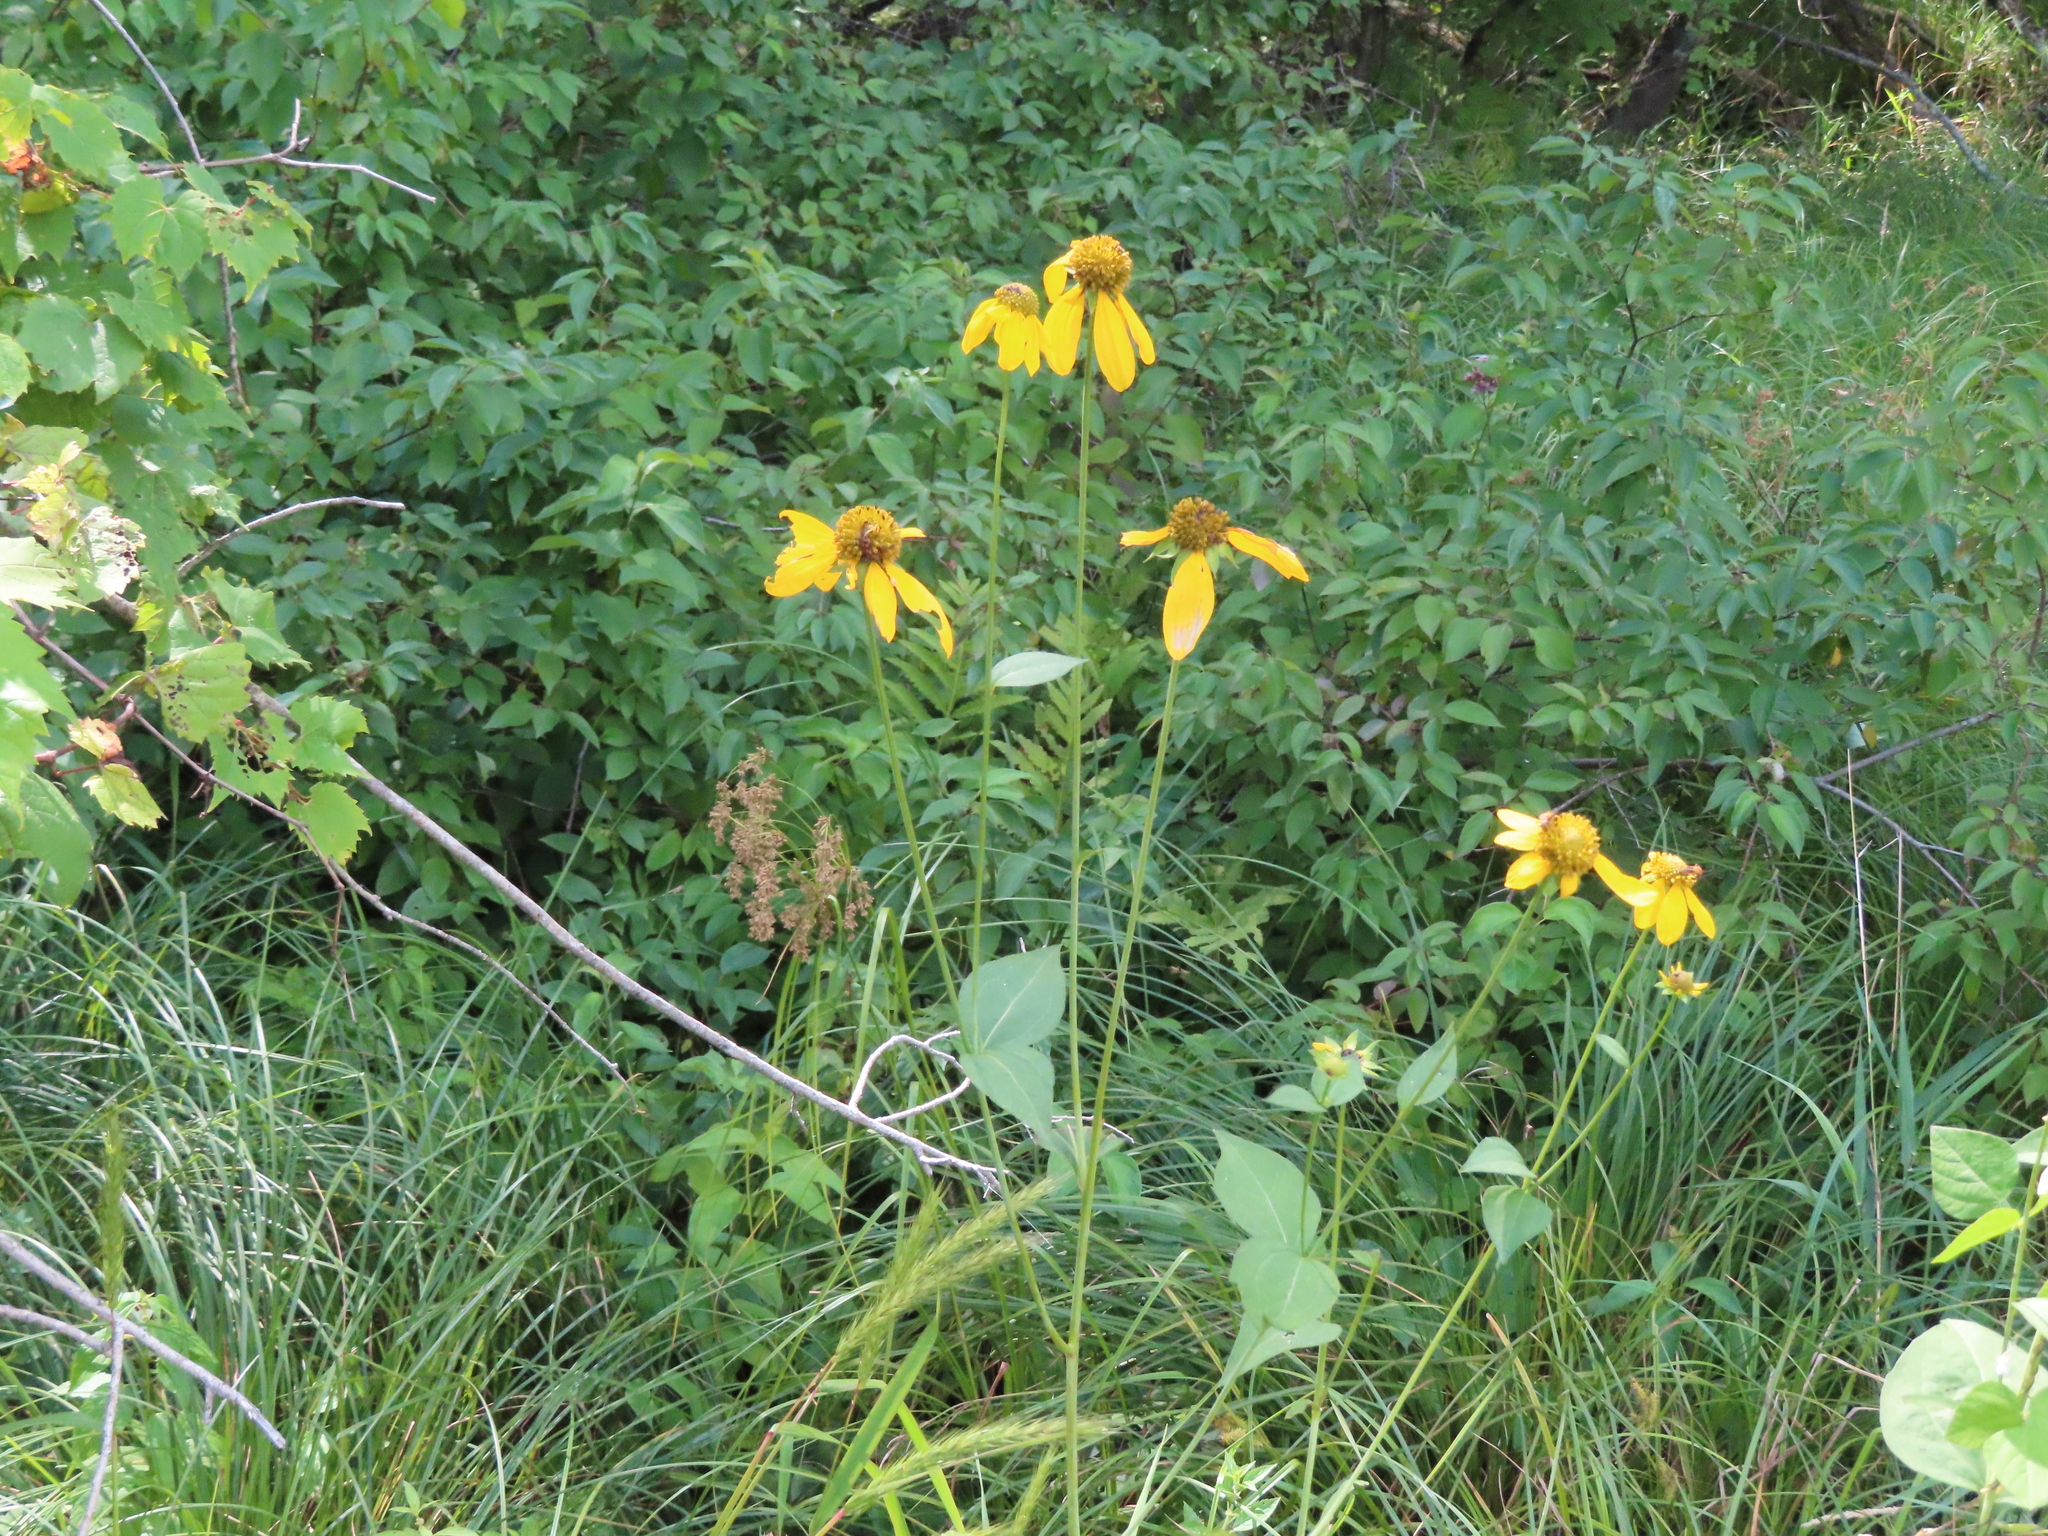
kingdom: Plantae
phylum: Tracheophyta
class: Magnoliopsida
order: Asterales
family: Asteraceae
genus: Rudbeckia
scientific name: Rudbeckia laciniata
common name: Coneflower
